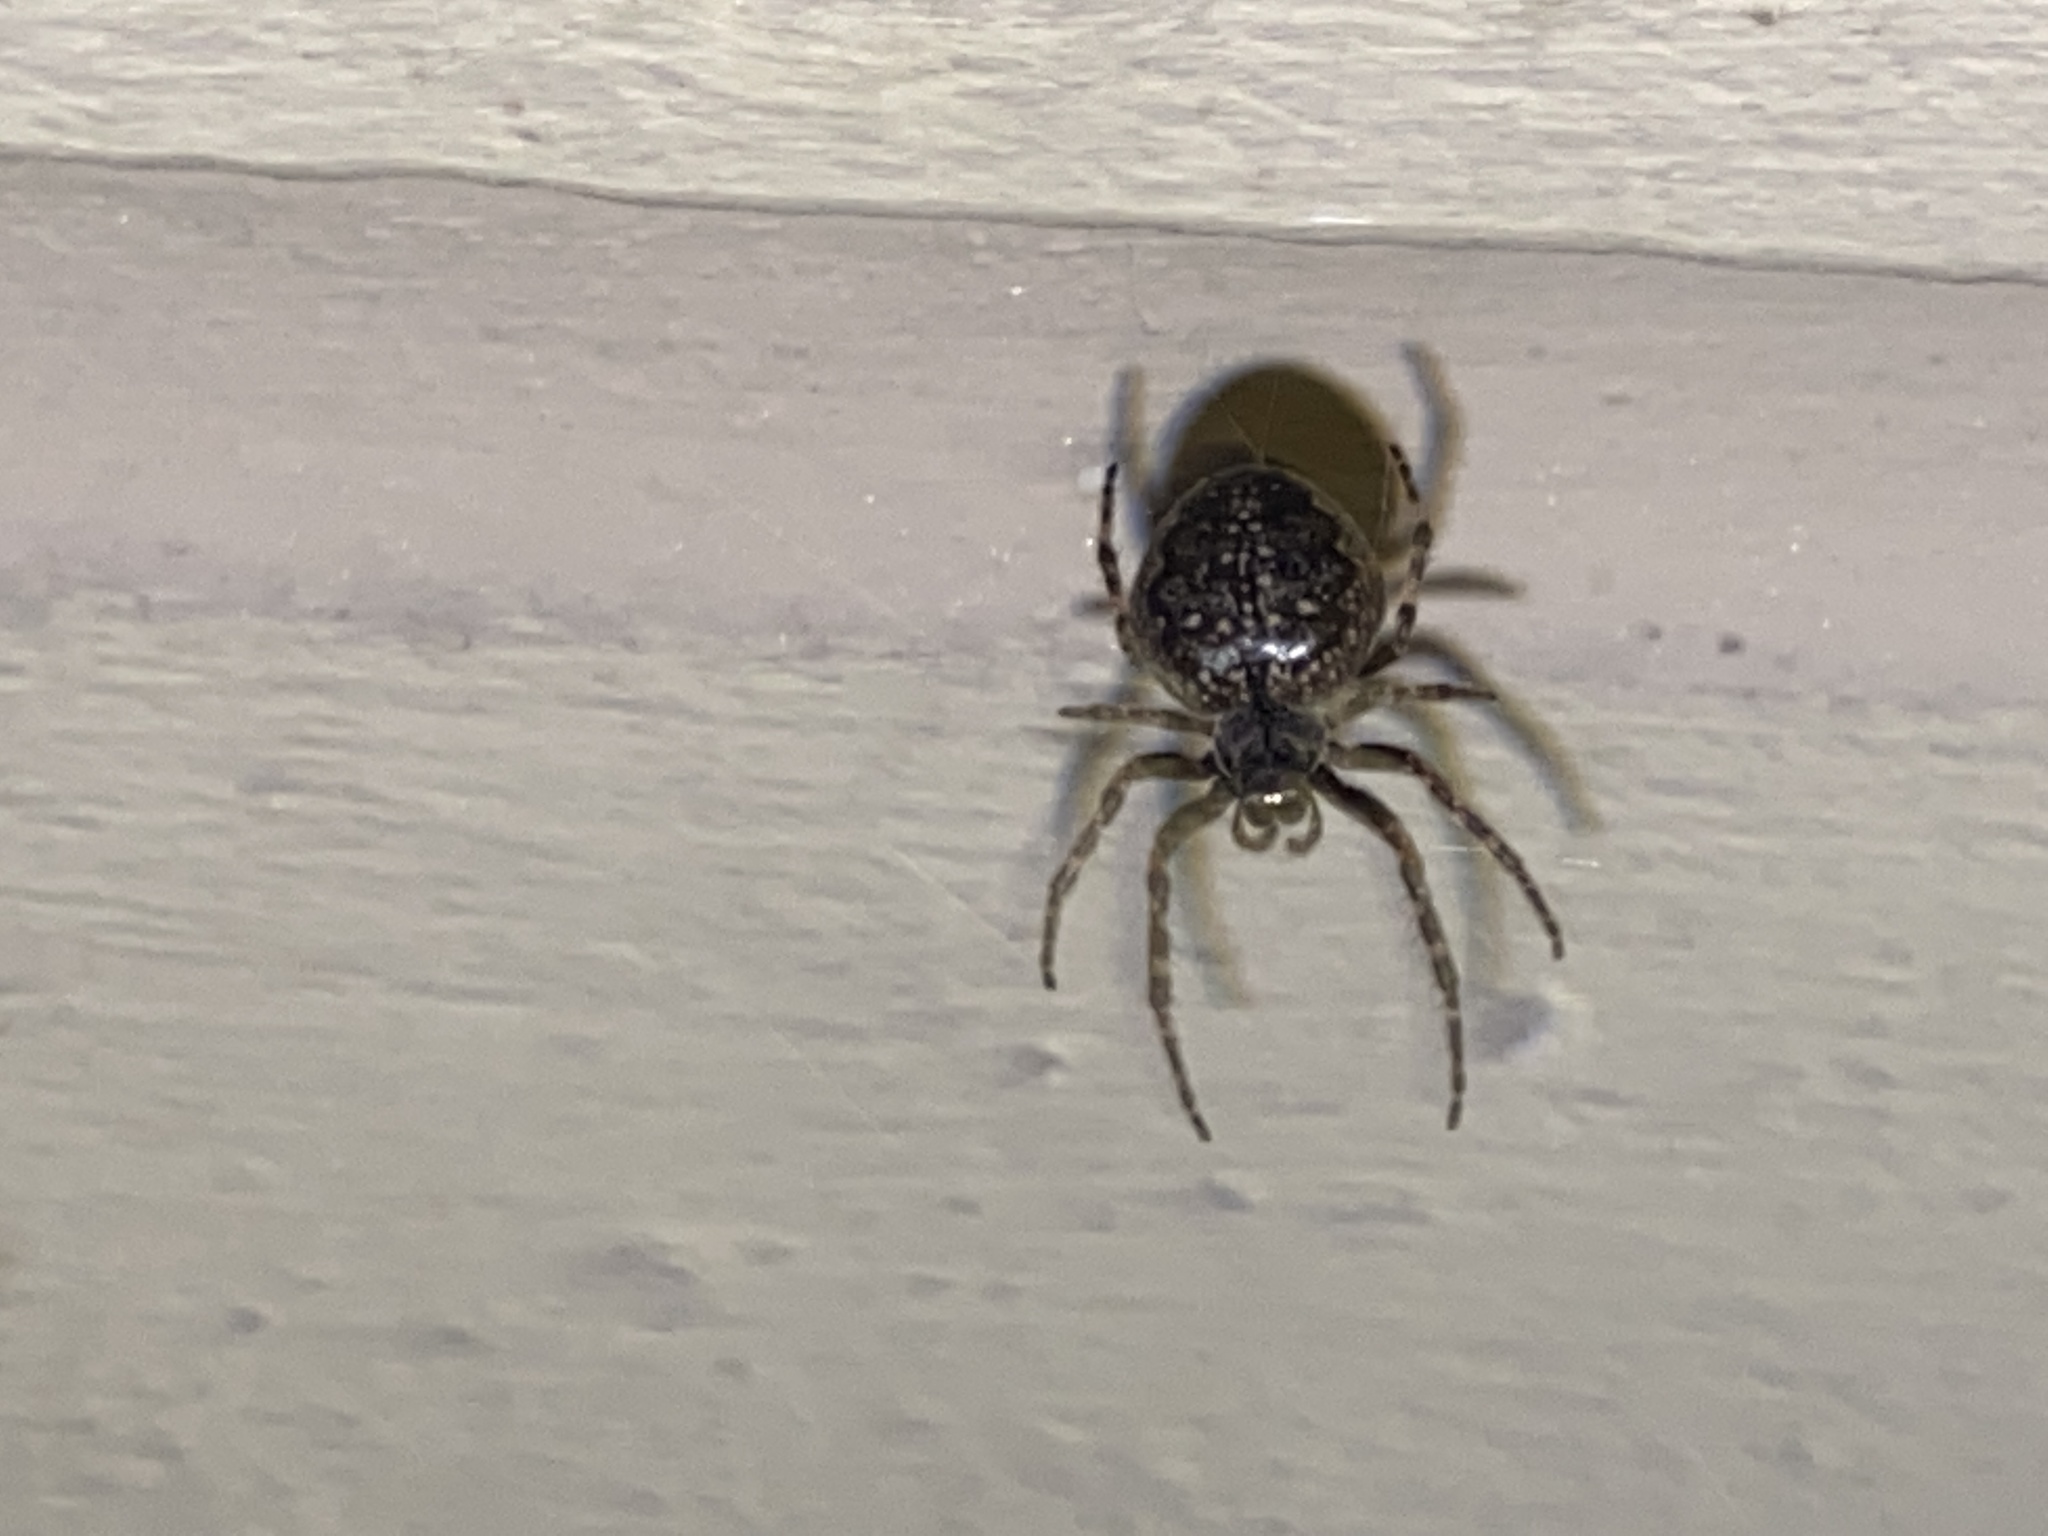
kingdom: Animalia
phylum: Arthropoda
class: Arachnida
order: Araneae
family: Araneidae
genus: Nuctenea
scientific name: Nuctenea umbratica
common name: Toad spider
